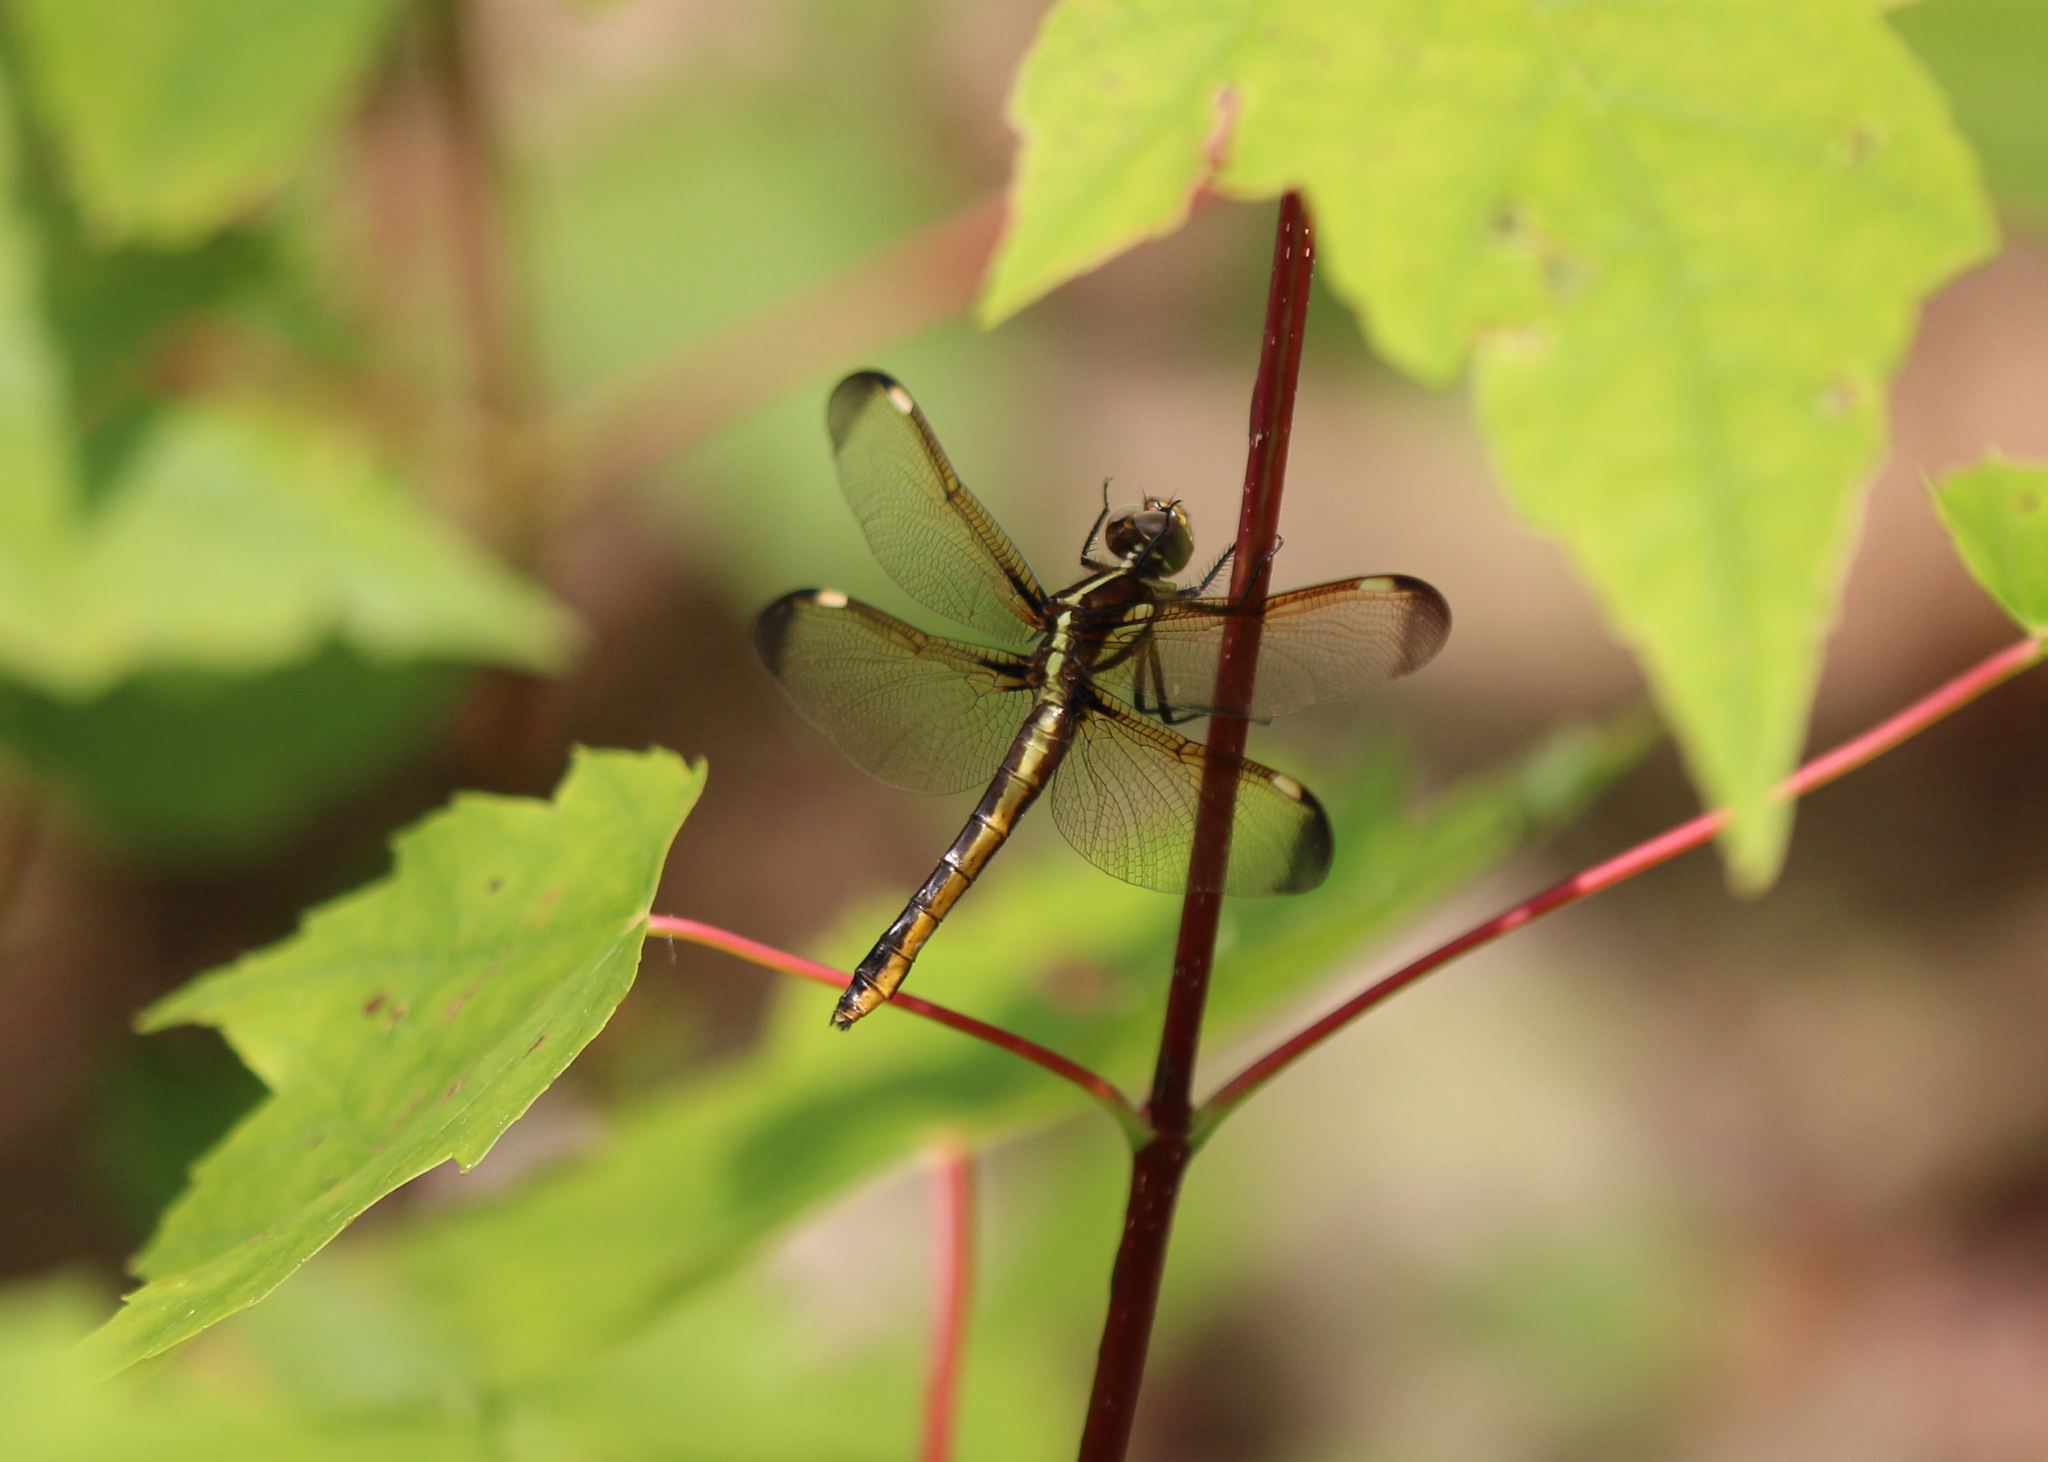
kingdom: Animalia
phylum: Arthropoda
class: Insecta
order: Odonata
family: Libellulidae
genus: Libellula
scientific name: Libellula cyanea
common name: Spangled skimmer
